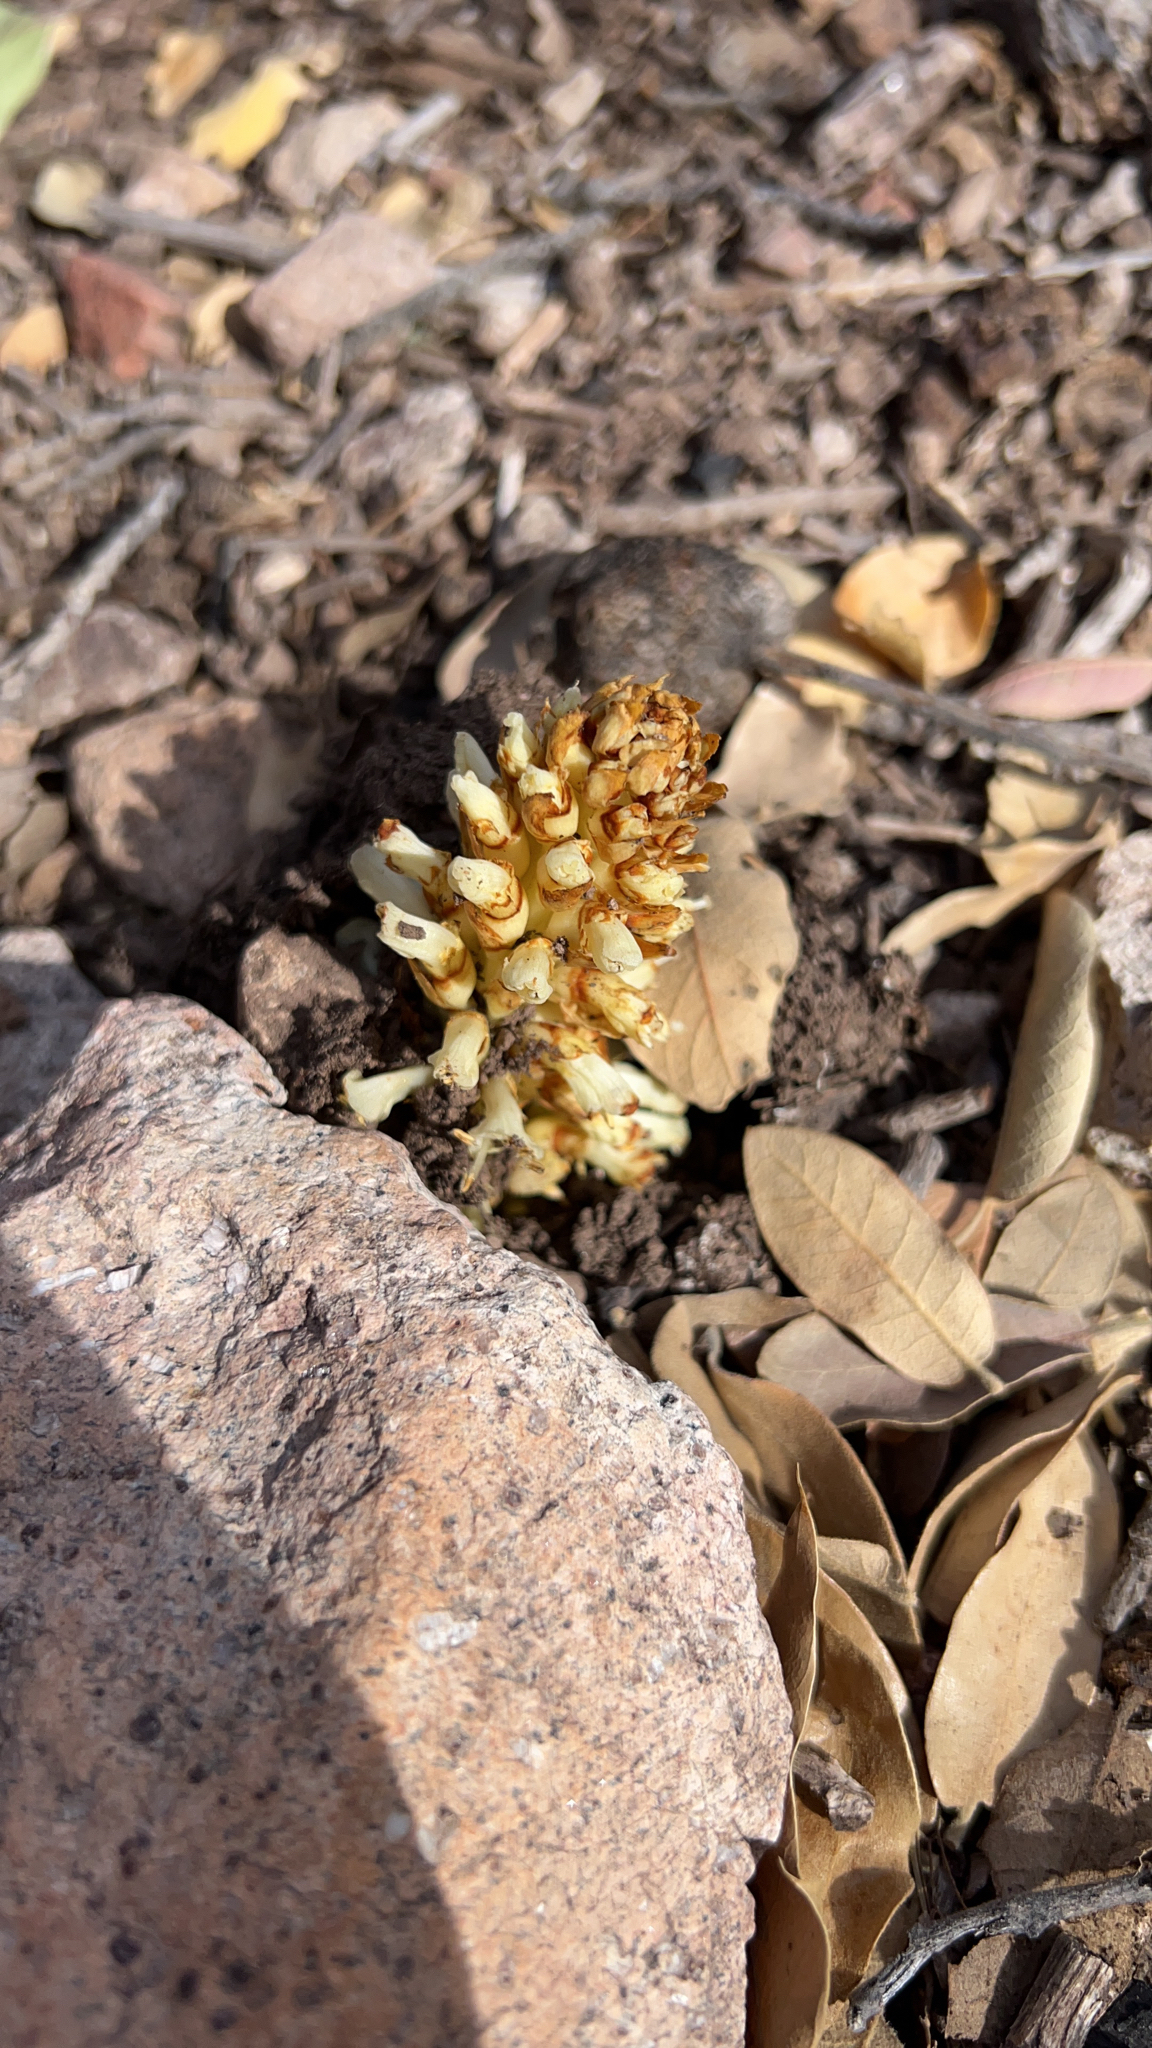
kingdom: Plantae
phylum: Tracheophyta
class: Magnoliopsida
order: Lamiales
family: Orobanchaceae
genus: Conopholis
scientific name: Conopholis alpina
